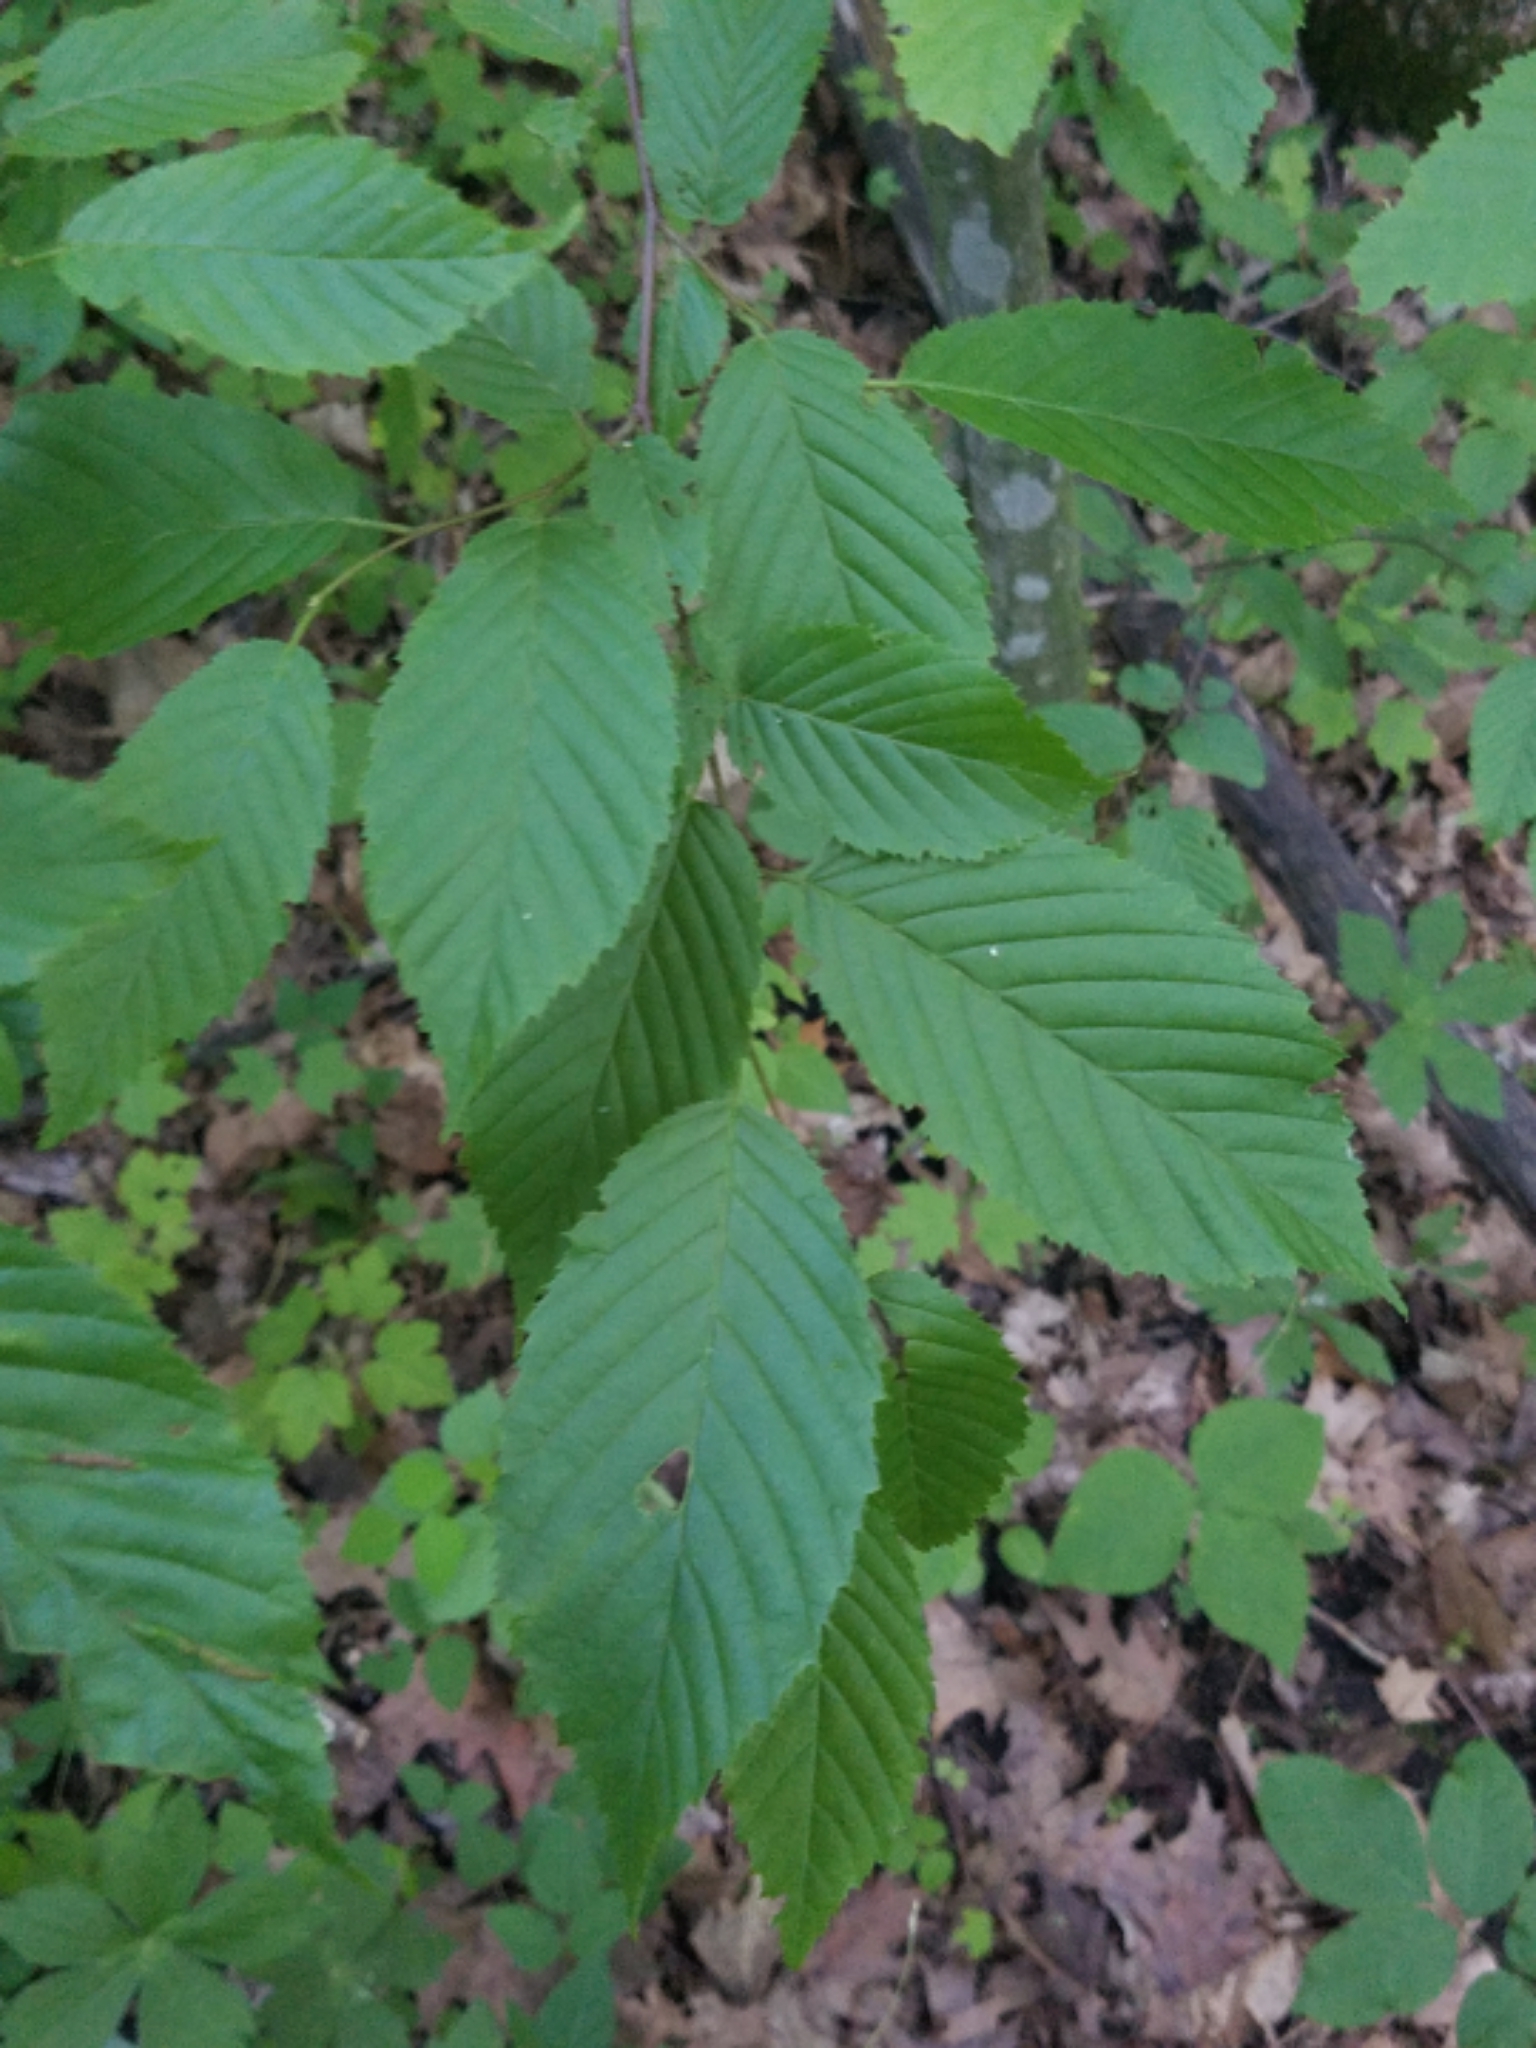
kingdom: Plantae
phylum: Tracheophyta
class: Magnoliopsida
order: Fagales
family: Betulaceae
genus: Carpinus
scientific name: Carpinus caroliniana
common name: American hornbeam
